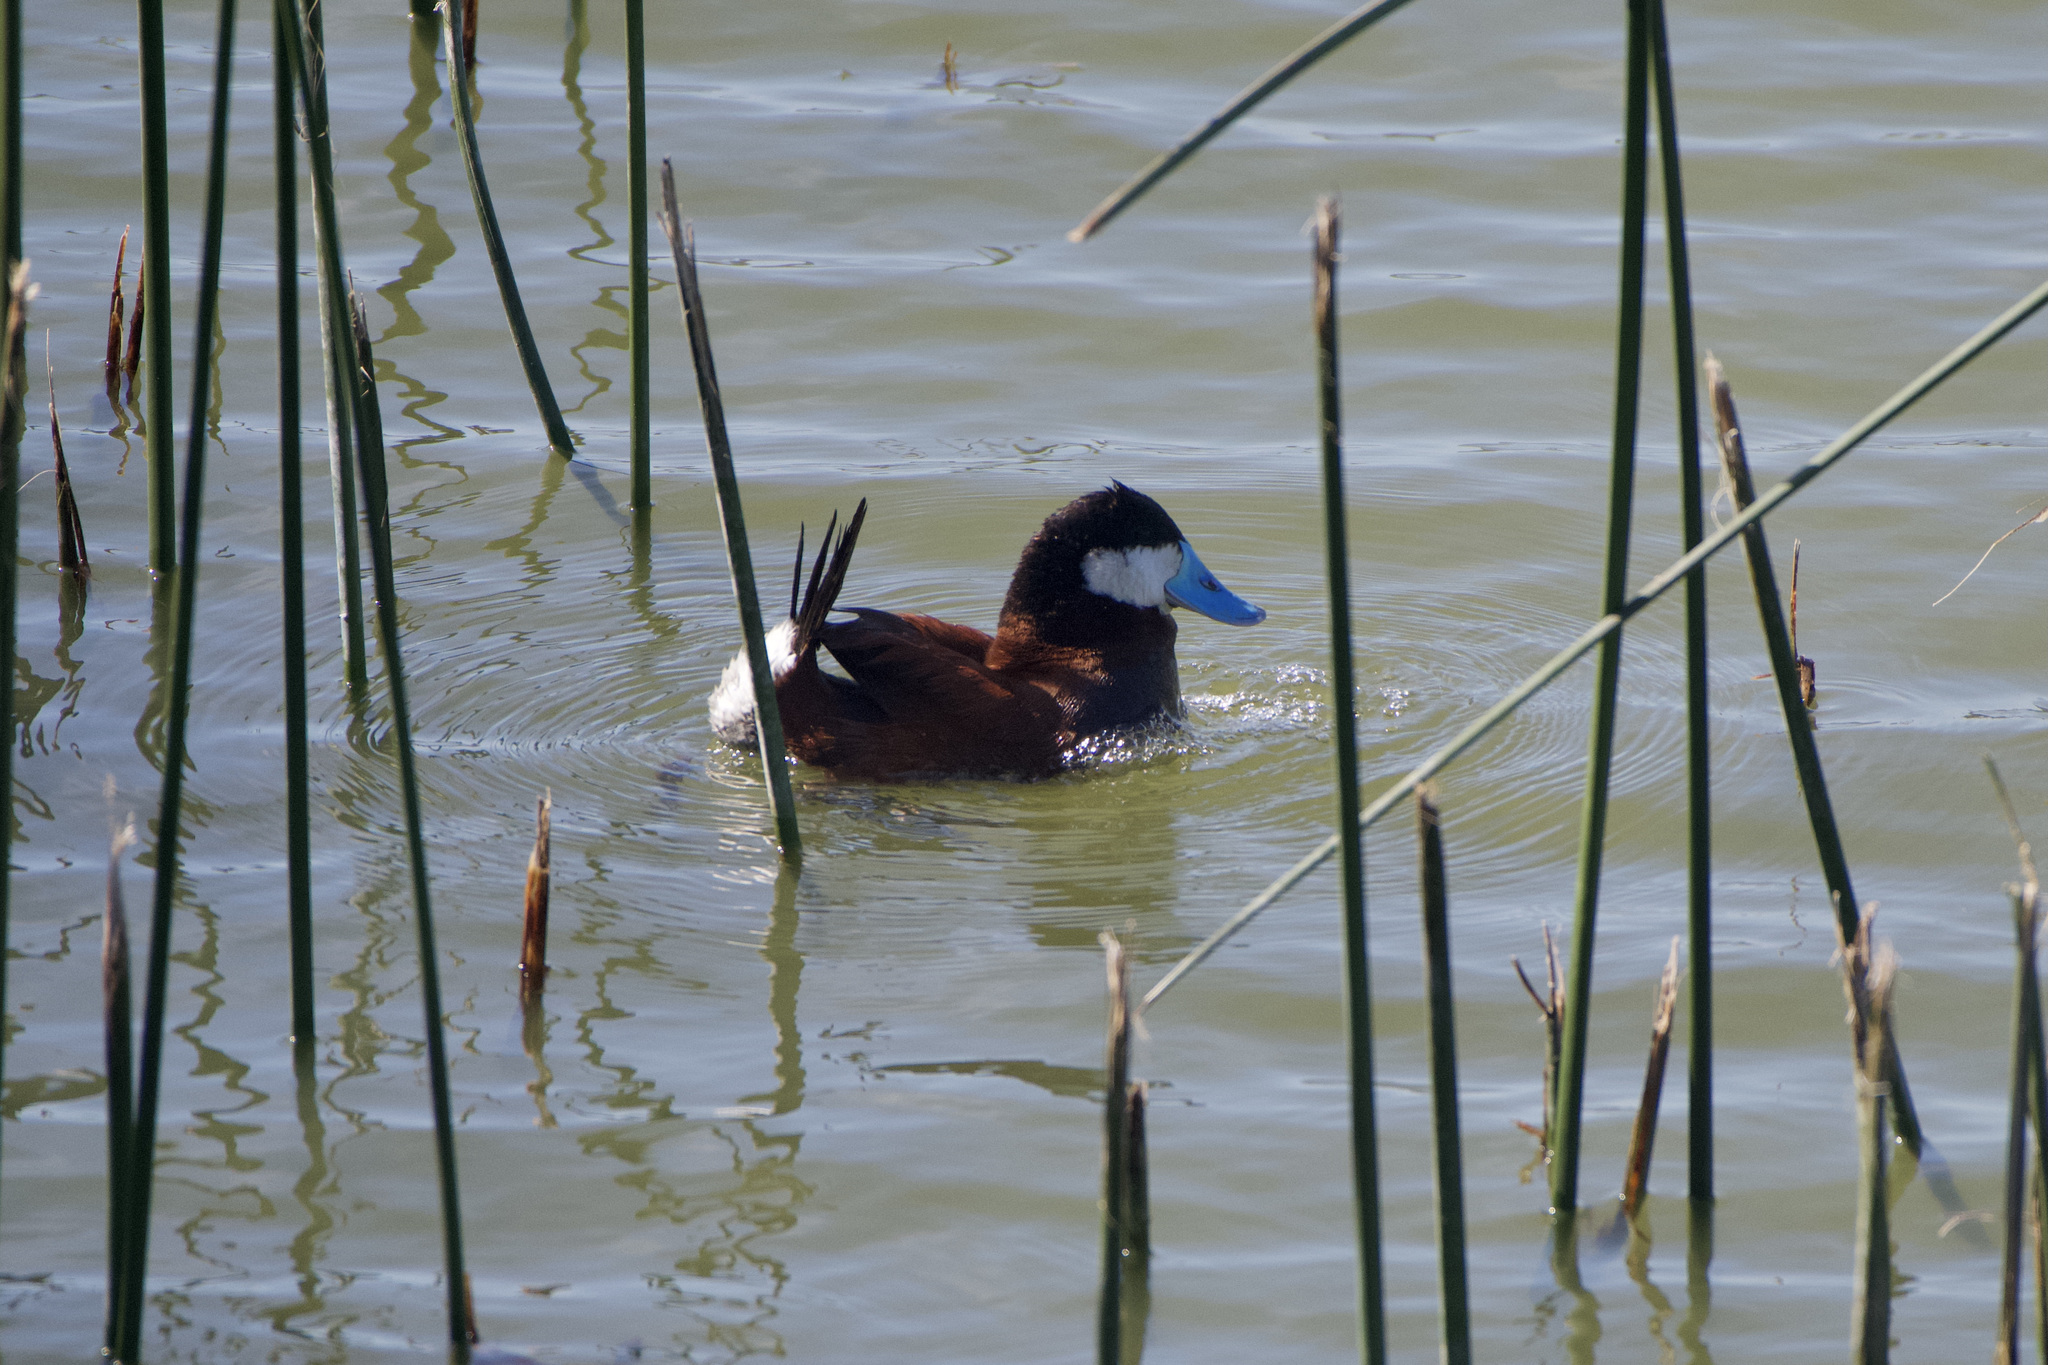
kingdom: Animalia
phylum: Chordata
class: Aves
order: Anseriformes
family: Anatidae
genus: Oxyura
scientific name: Oxyura jamaicensis
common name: Ruddy duck
